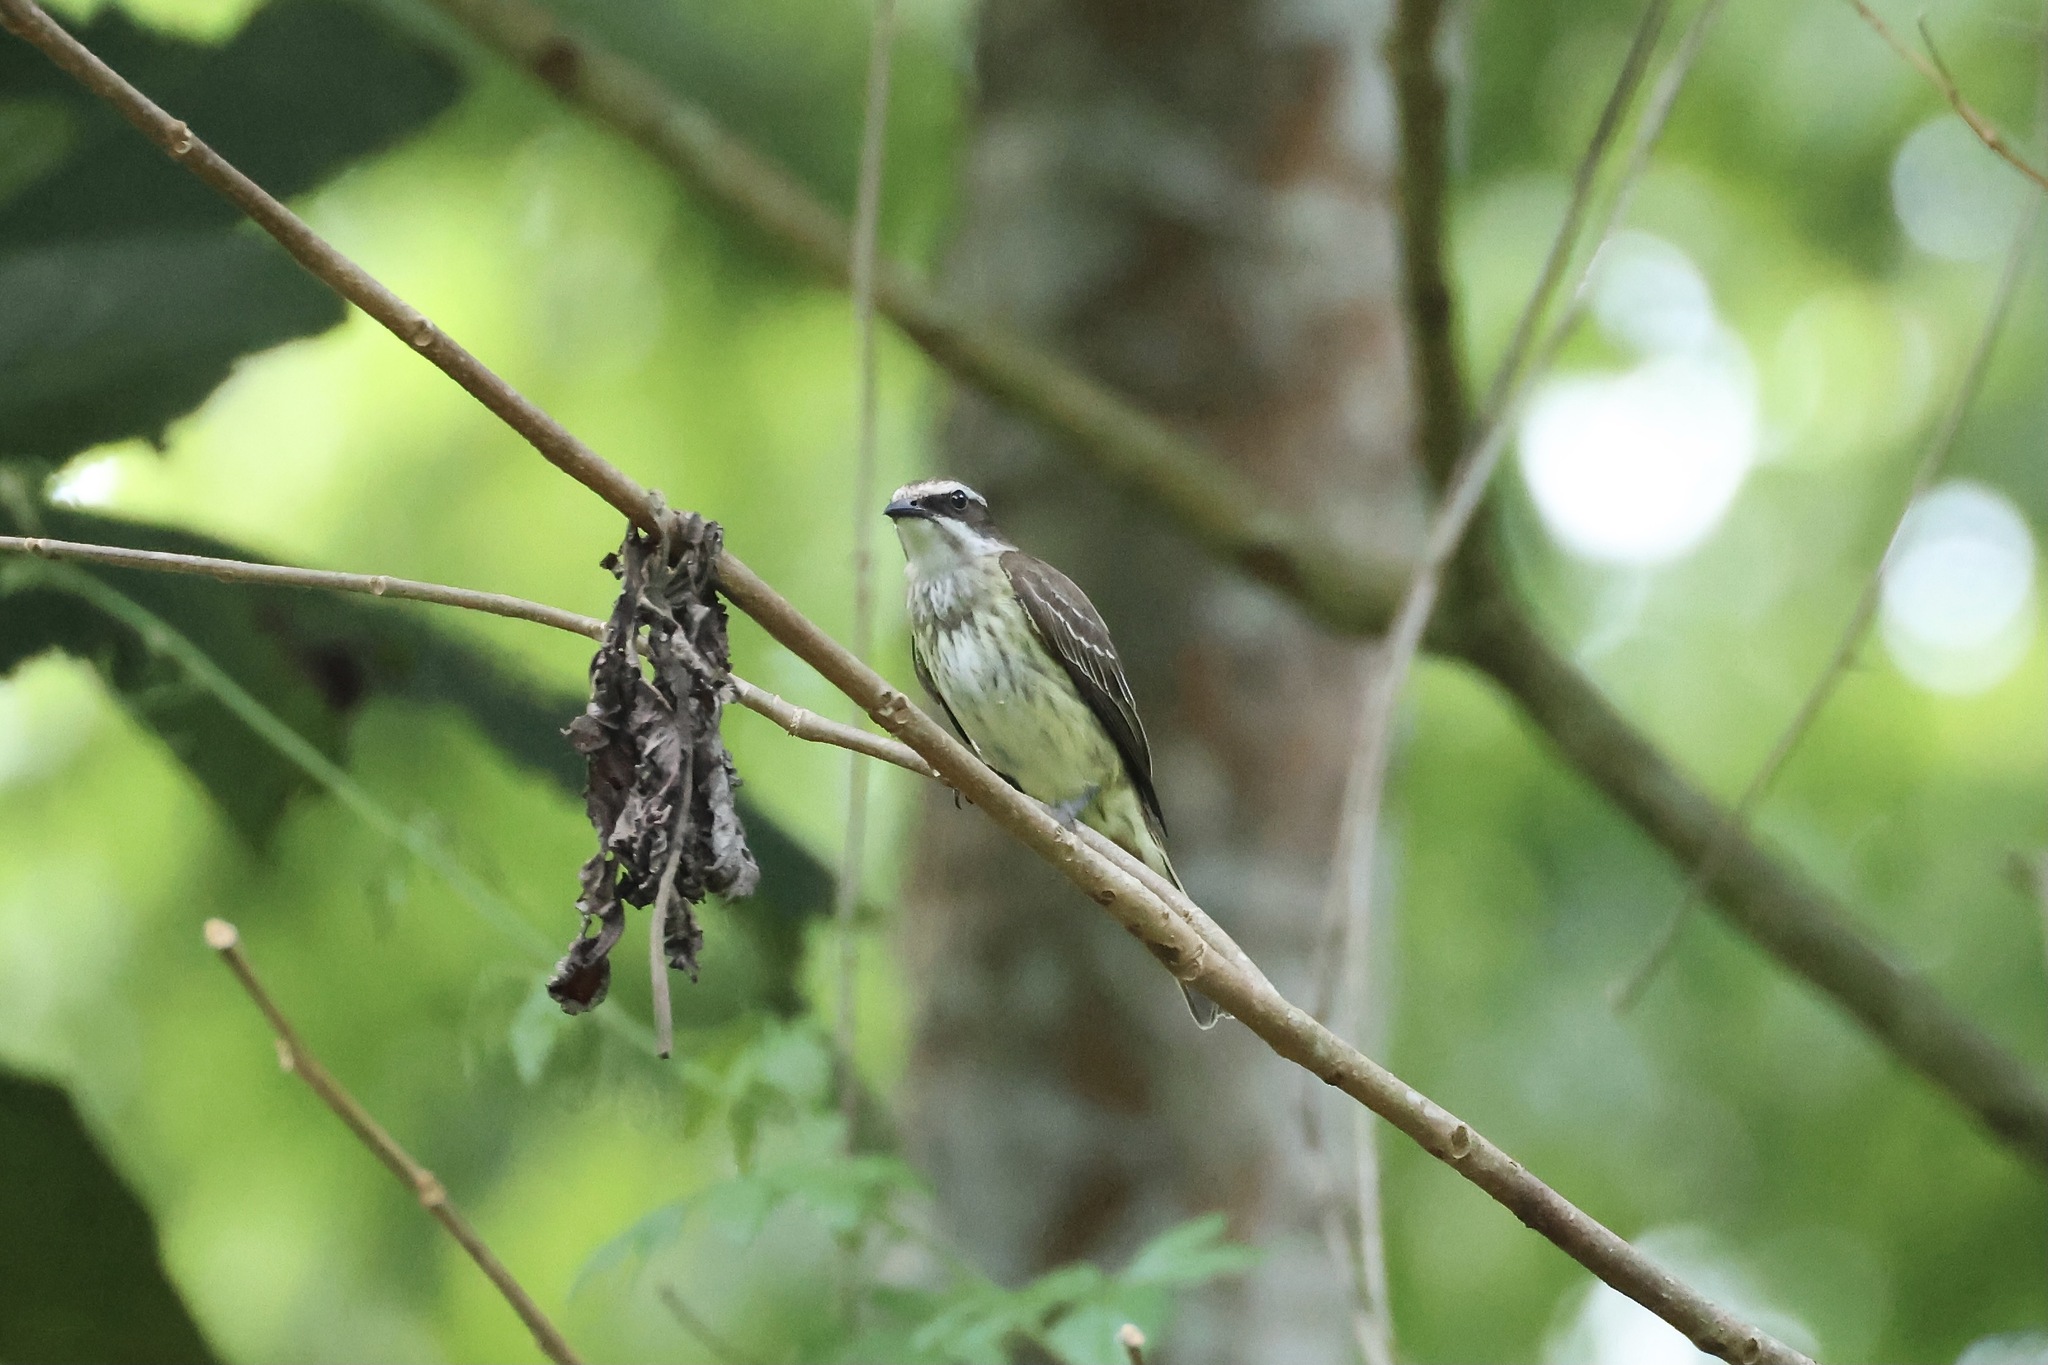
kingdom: Animalia
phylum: Chordata
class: Aves
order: Passeriformes
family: Tyrannidae
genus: Legatus
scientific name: Legatus leucophaius
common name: Piratic flycatcher
